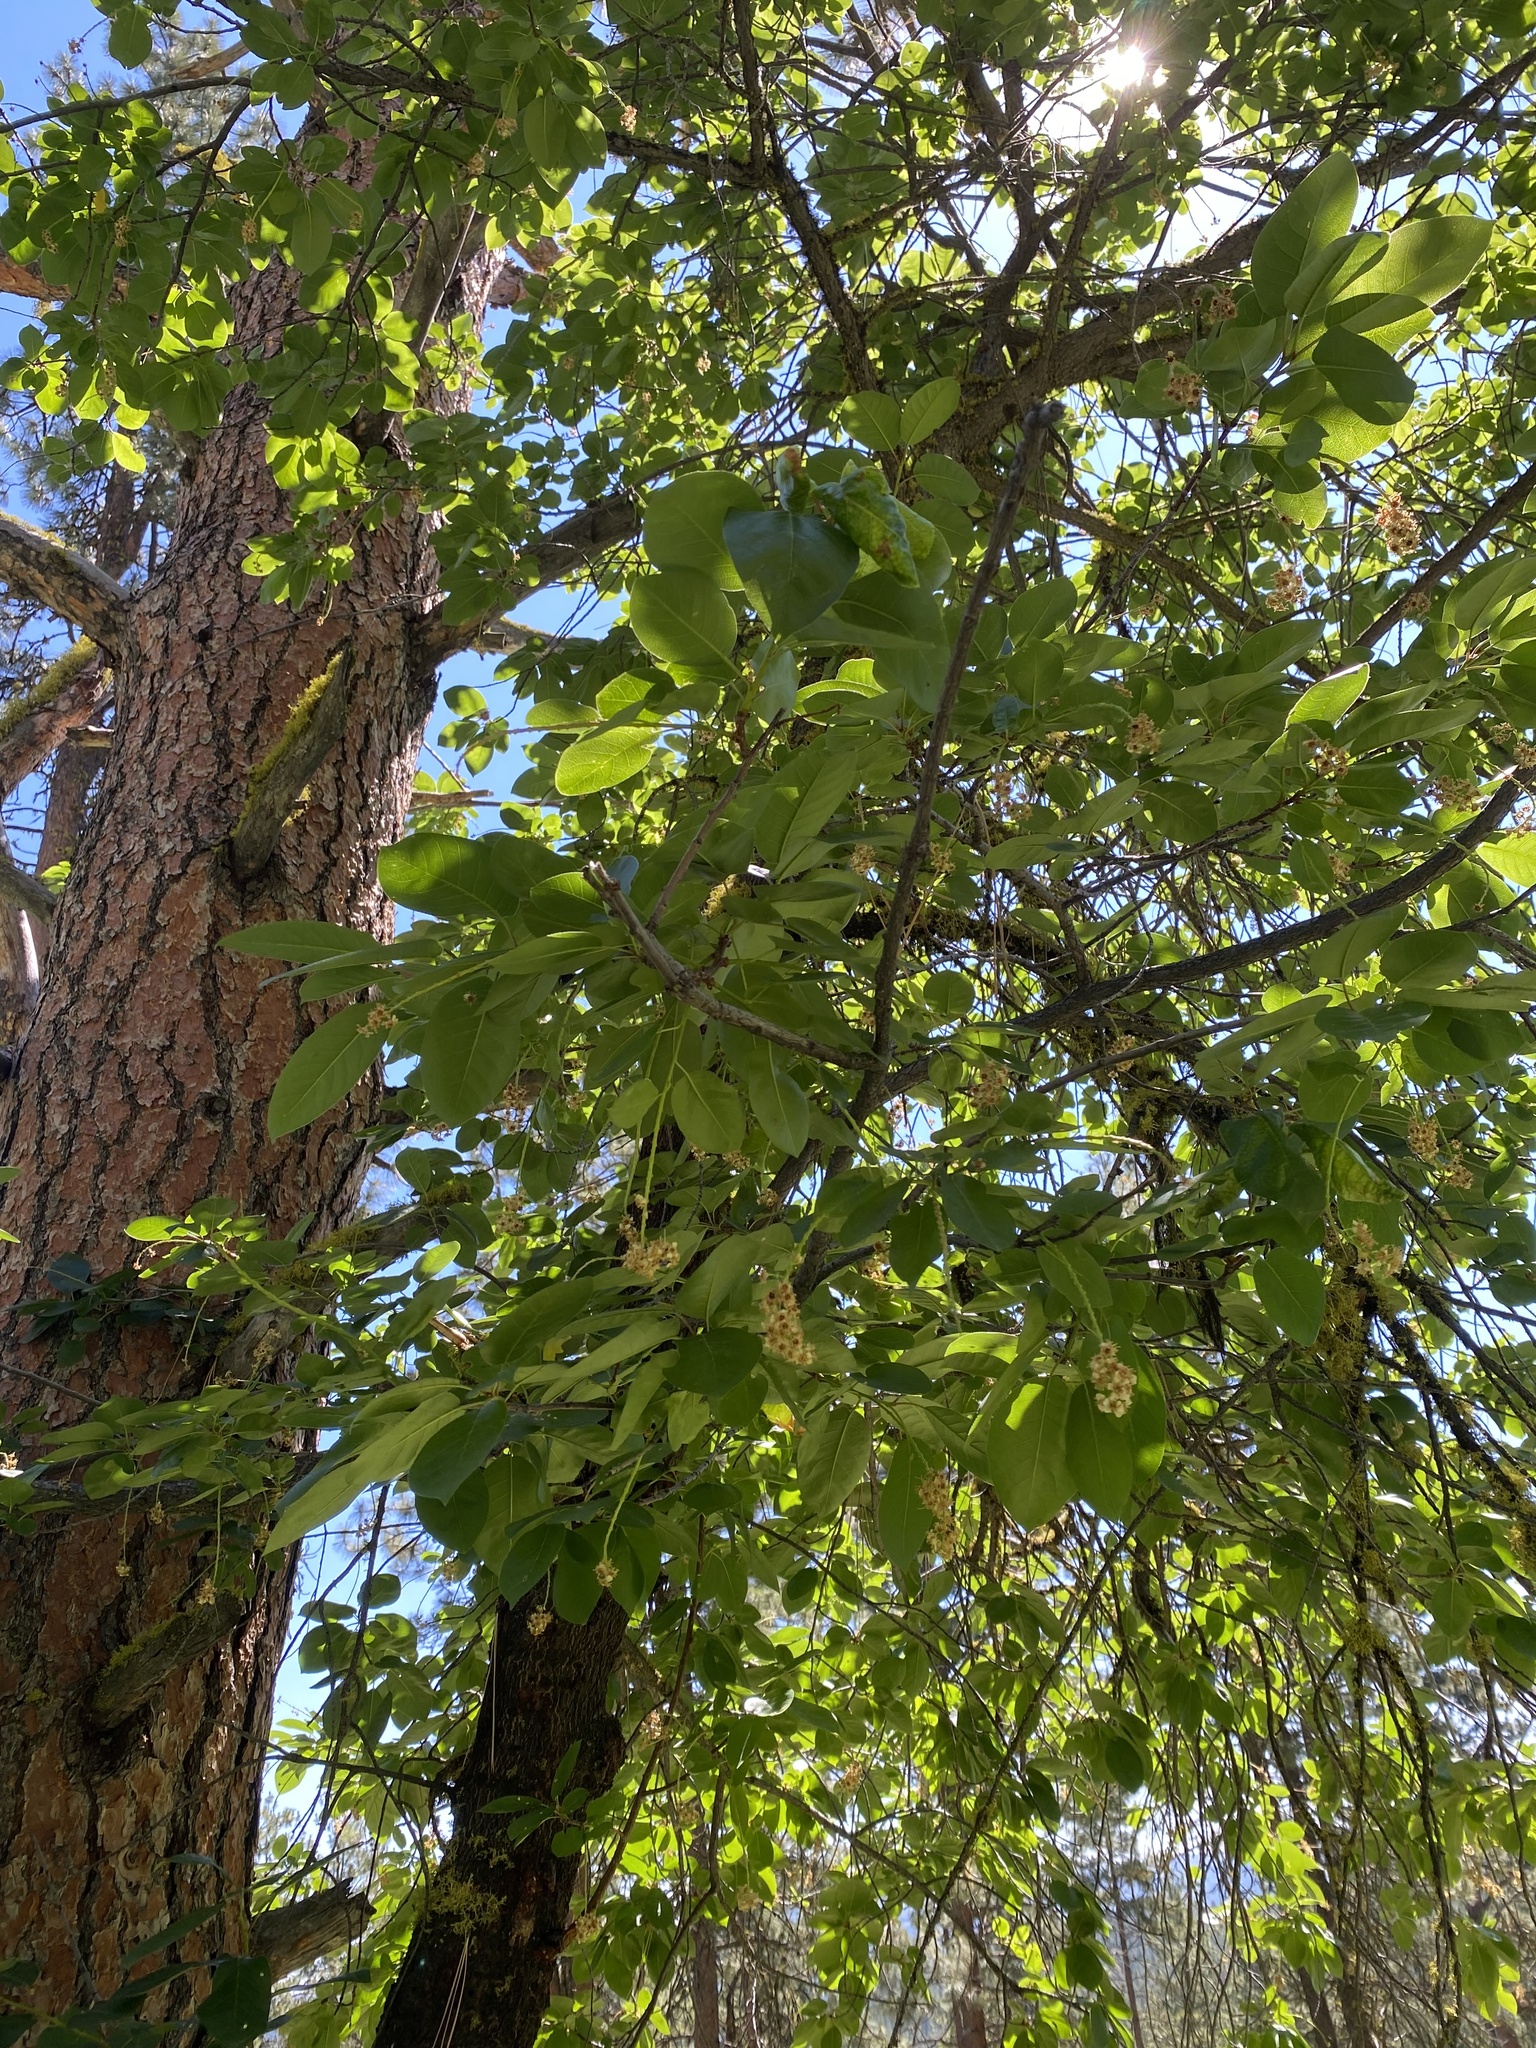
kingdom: Plantae
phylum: Tracheophyta
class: Magnoliopsida
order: Rosales
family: Rosaceae
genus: Prunus
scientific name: Prunus virginiana
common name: Chokecherry
